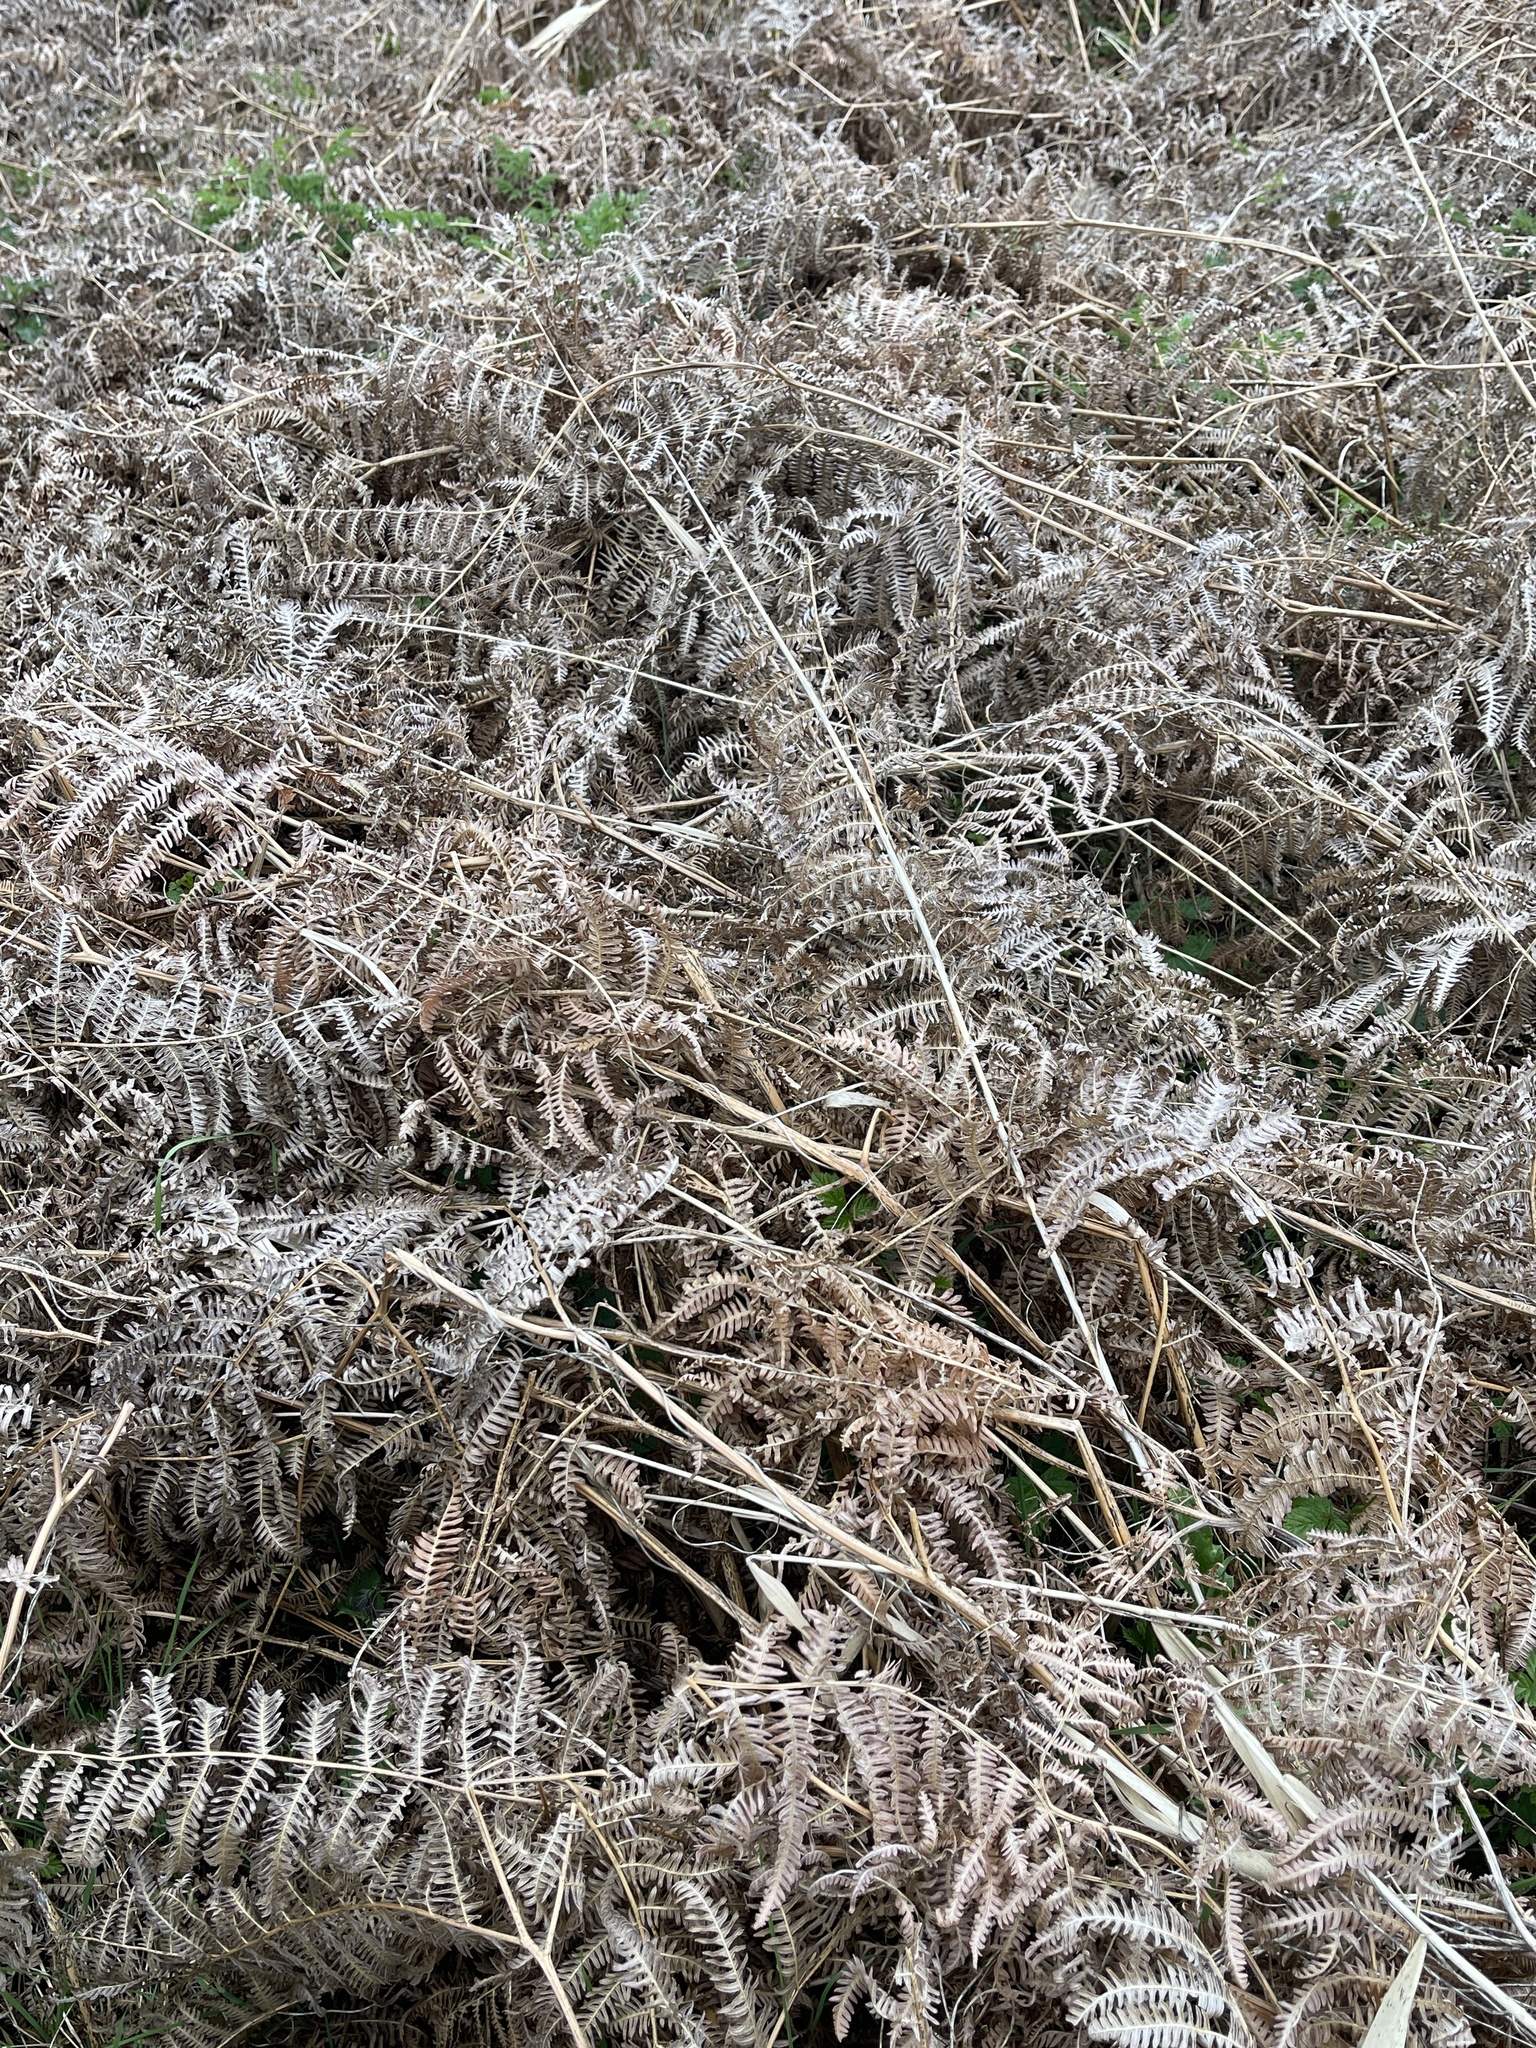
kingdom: Plantae
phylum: Tracheophyta
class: Polypodiopsida
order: Polypodiales
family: Dennstaedtiaceae
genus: Pteridium
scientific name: Pteridium aquilinum
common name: Bracken
